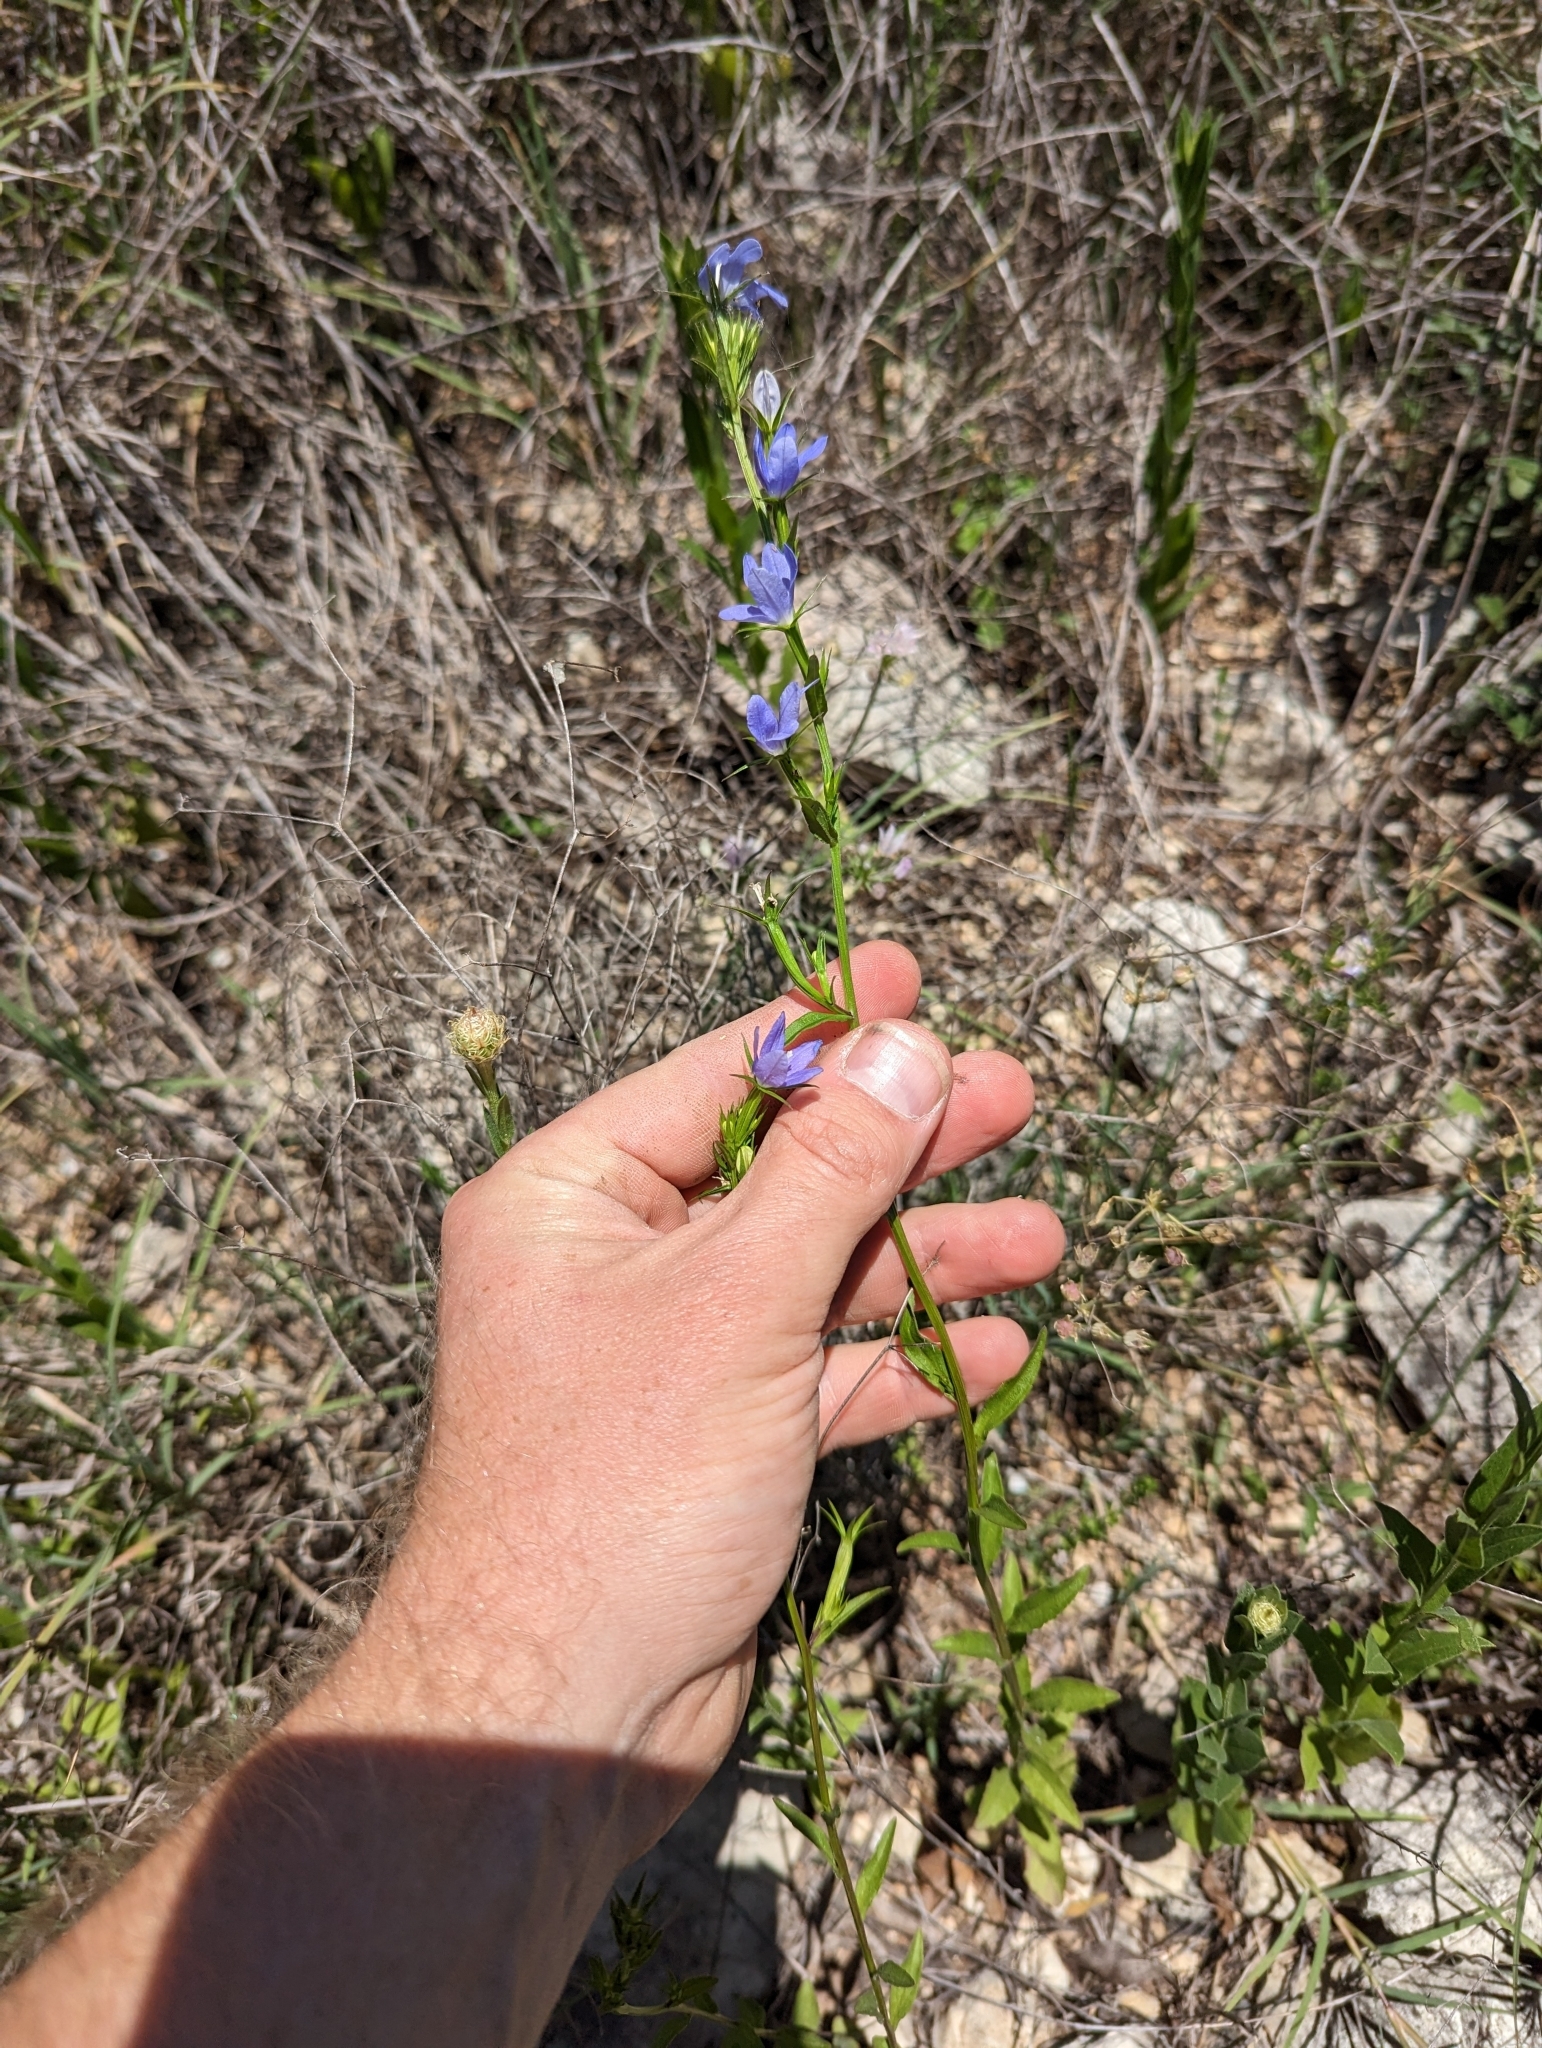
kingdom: Plantae
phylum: Tracheophyta
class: Magnoliopsida
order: Asterales
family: Campanulaceae
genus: Triodanis
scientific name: Triodanis coloradoensis
